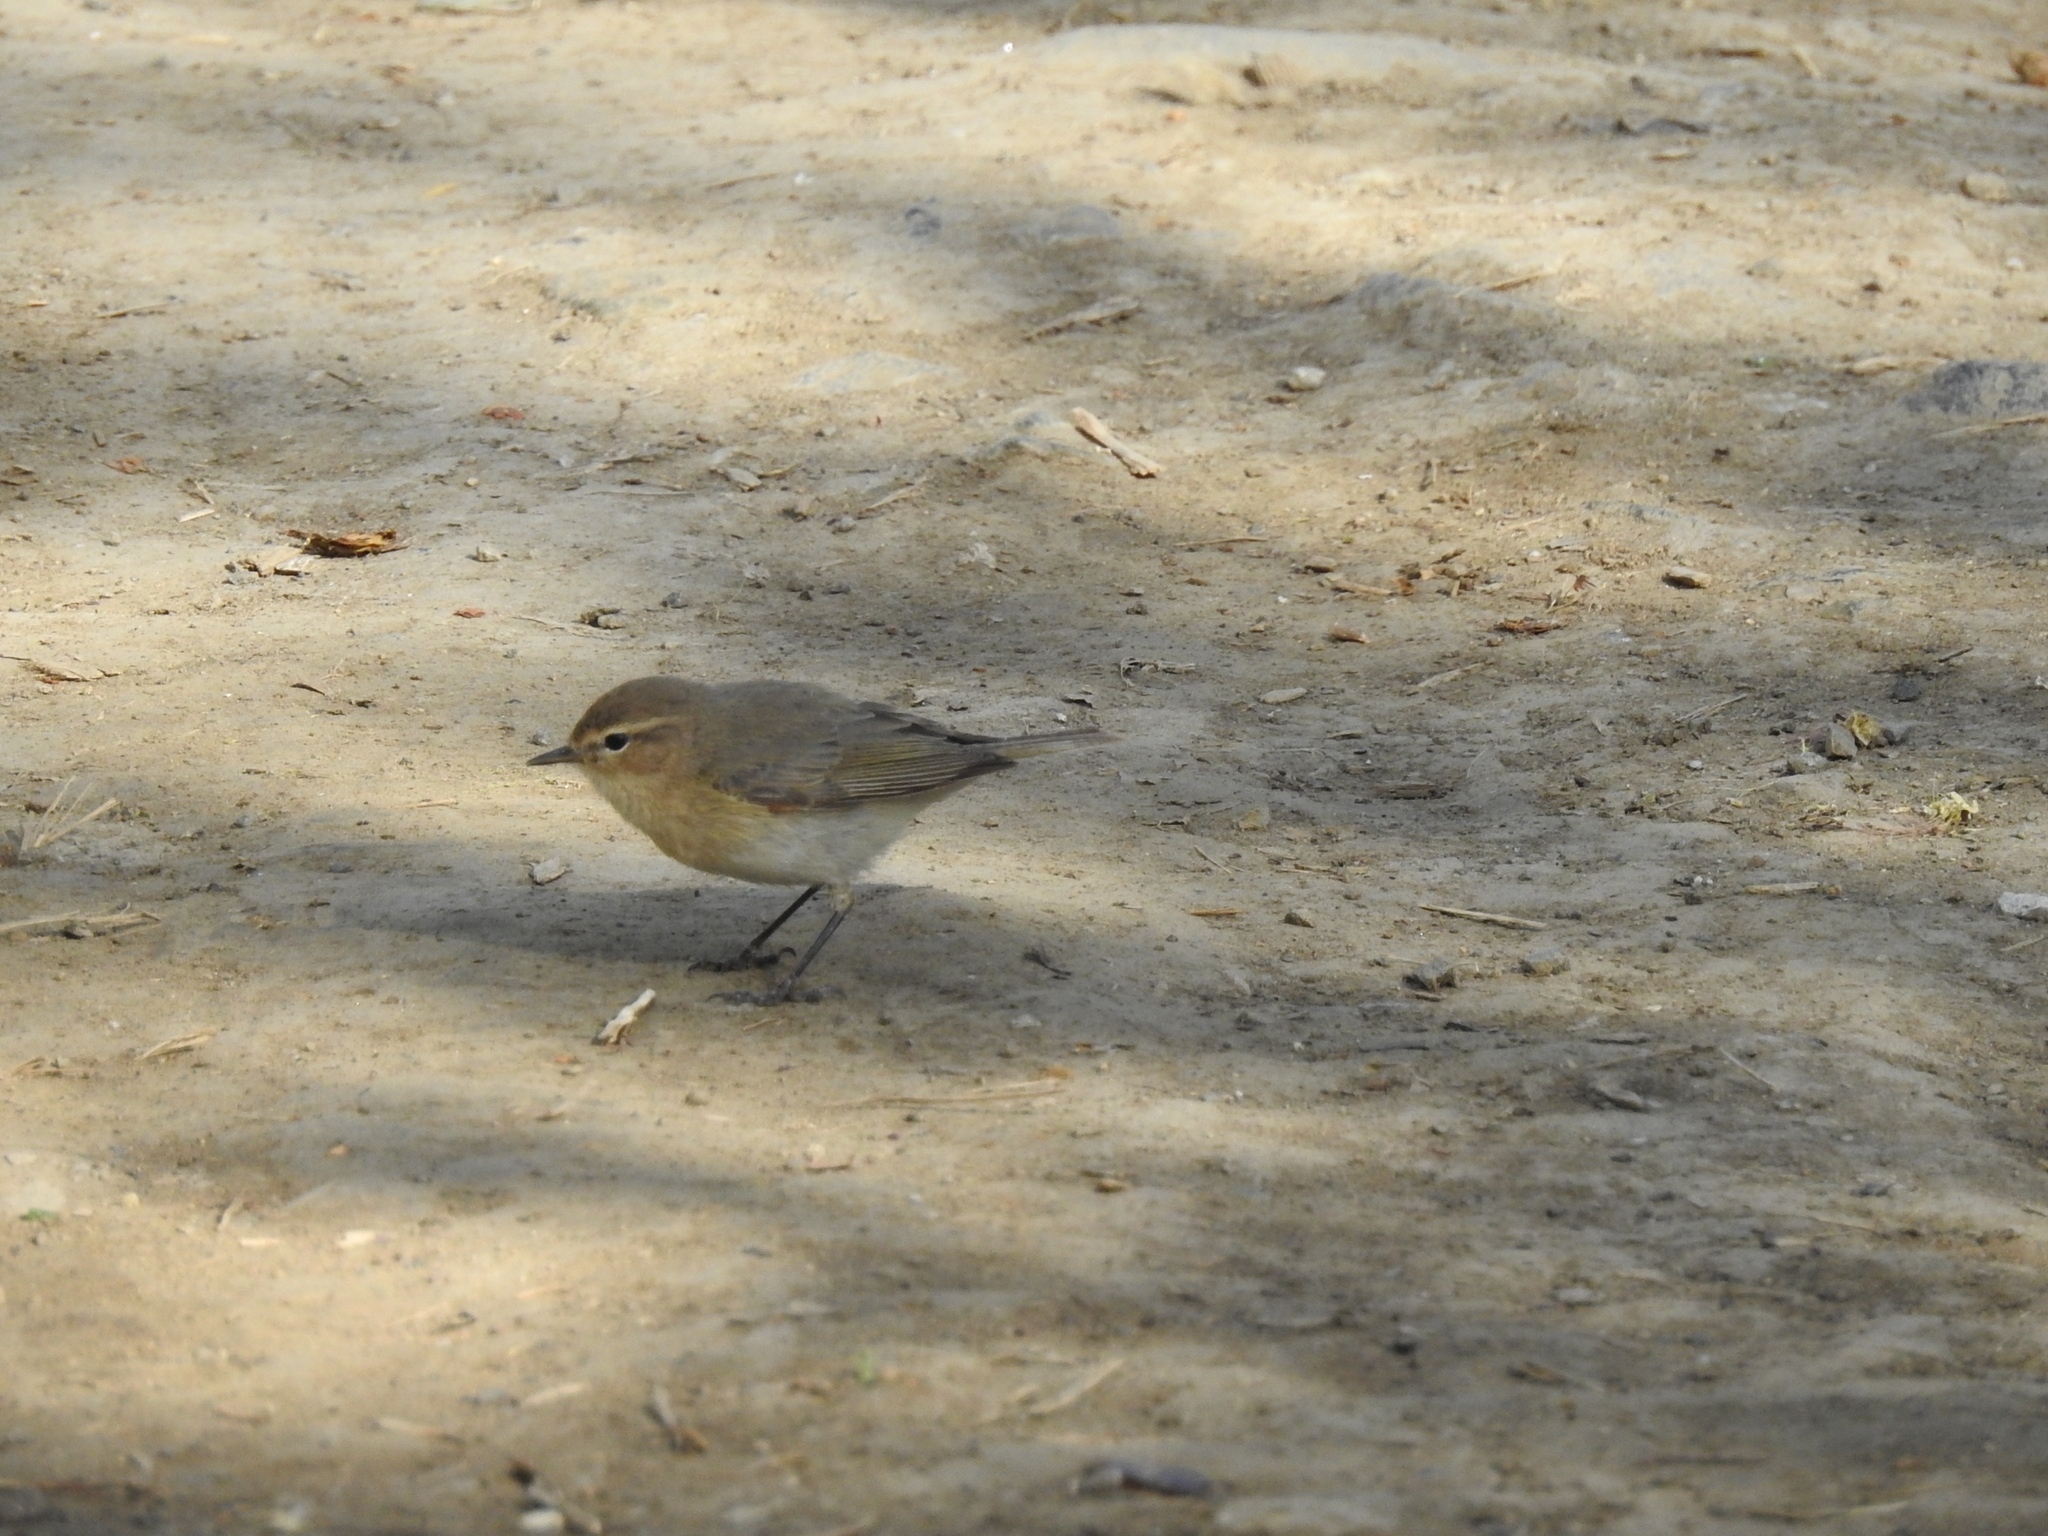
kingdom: Animalia
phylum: Chordata
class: Aves
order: Passeriformes
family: Phylloscopidae
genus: Phylloscopus
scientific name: Phylloscopus collybita
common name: Common chiffchaff
